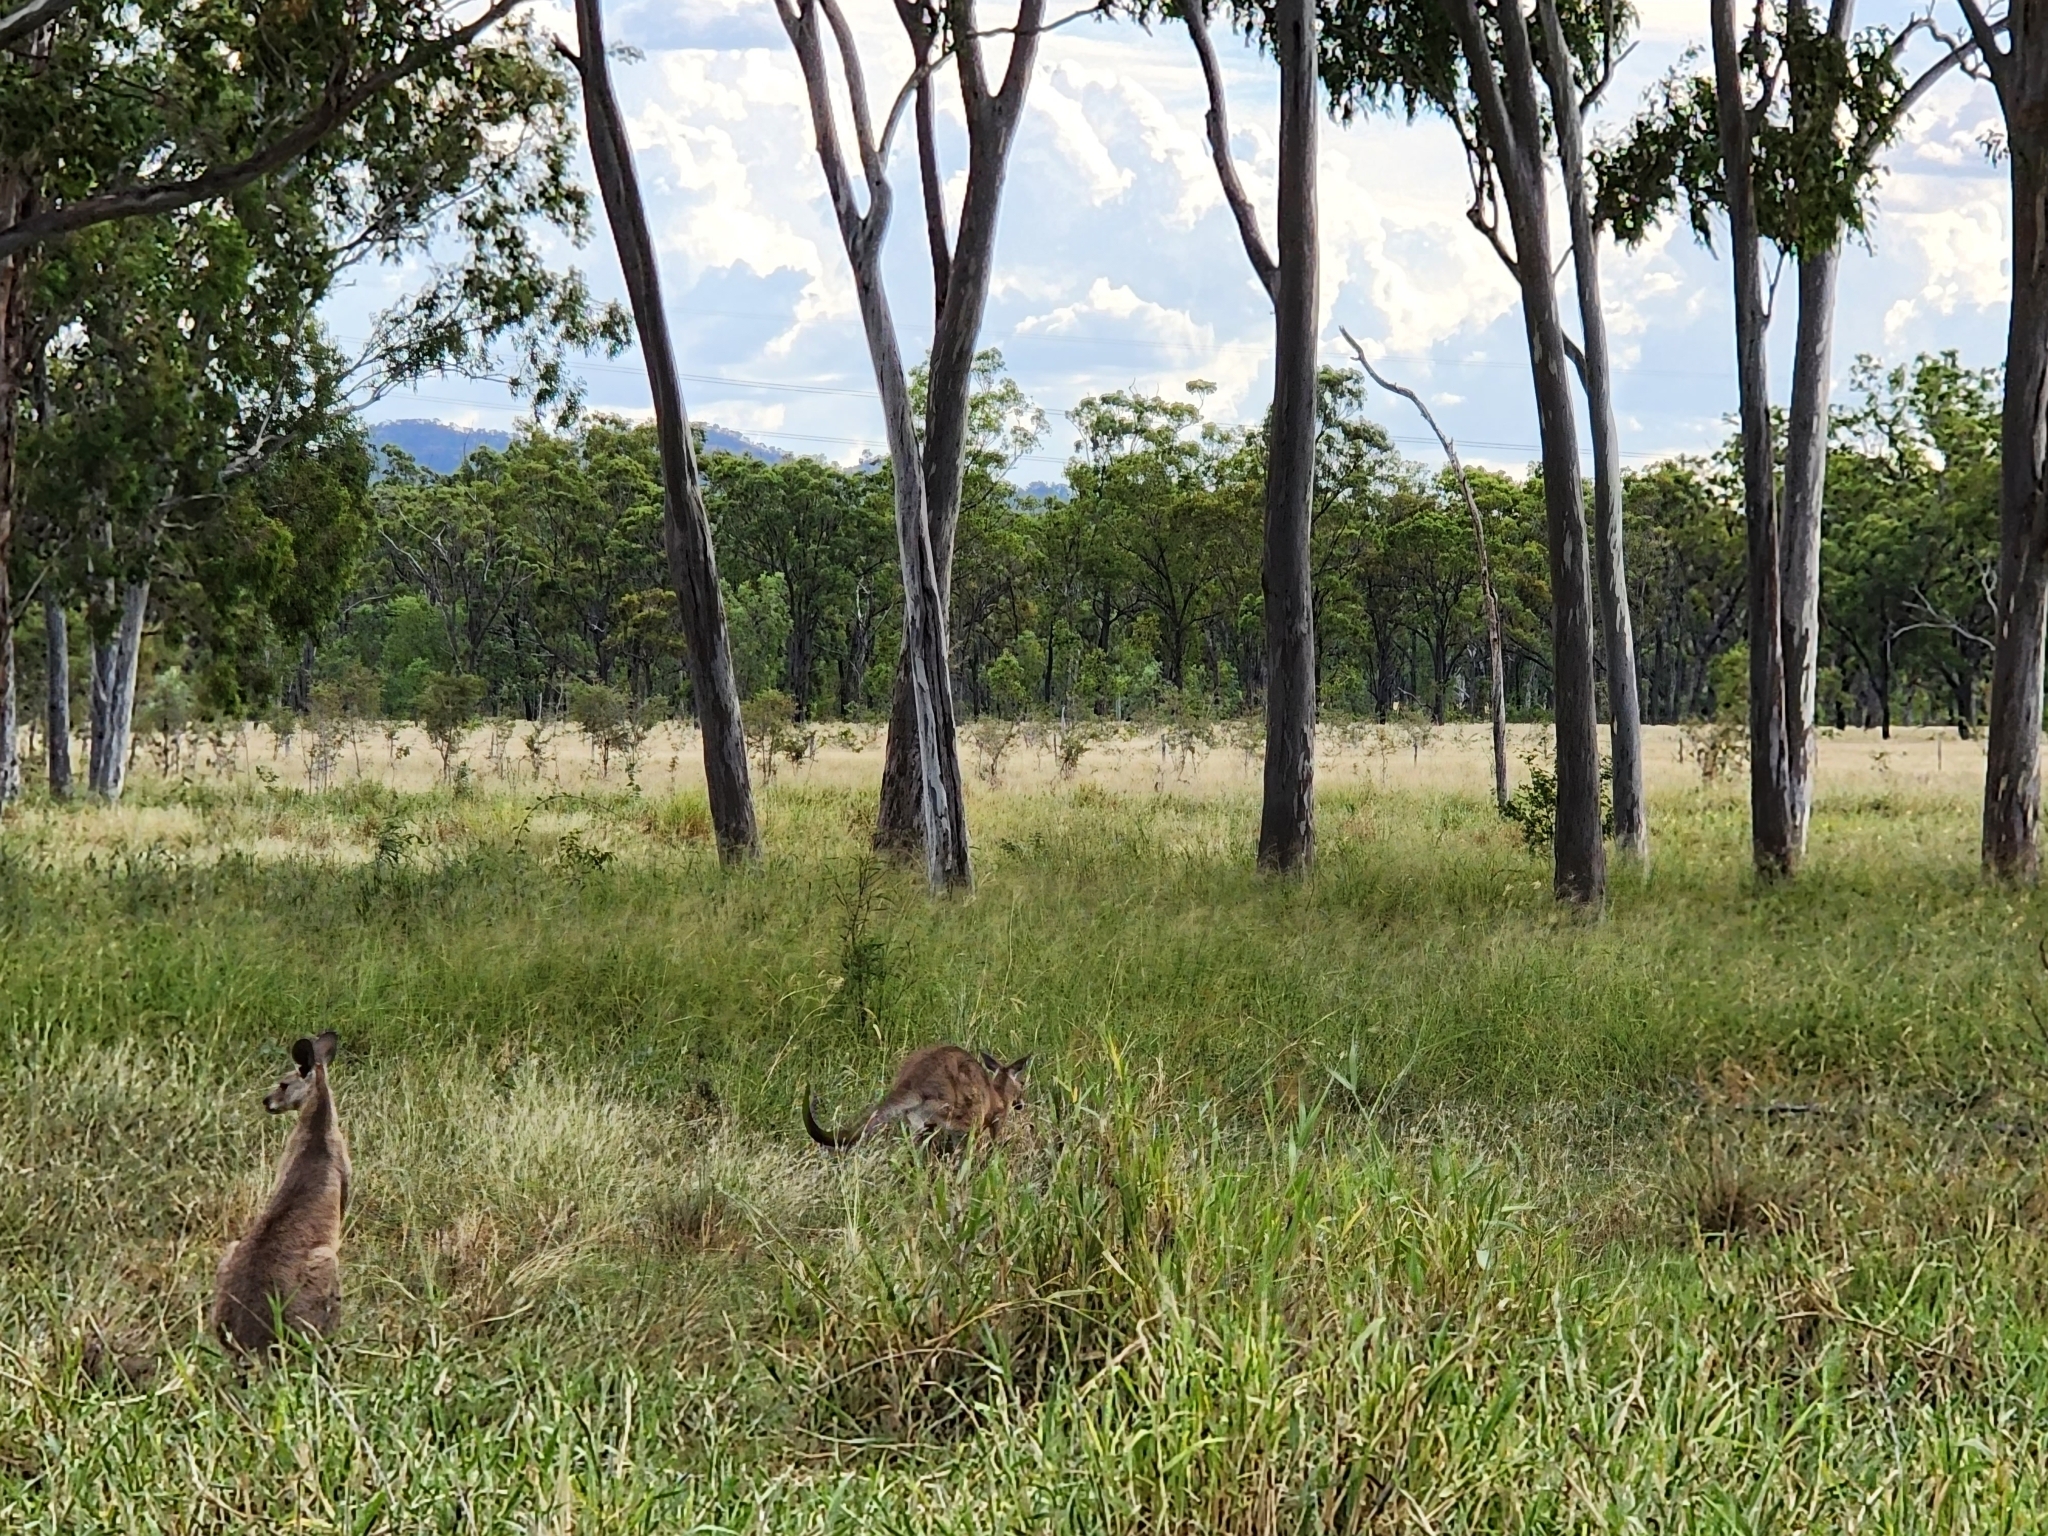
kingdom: Animalia
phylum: Chordata
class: Mammalia
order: Diprotodontia
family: Macropodidae
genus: Macropus
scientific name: Macropus giganteus
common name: Eastern grey kangaroo
